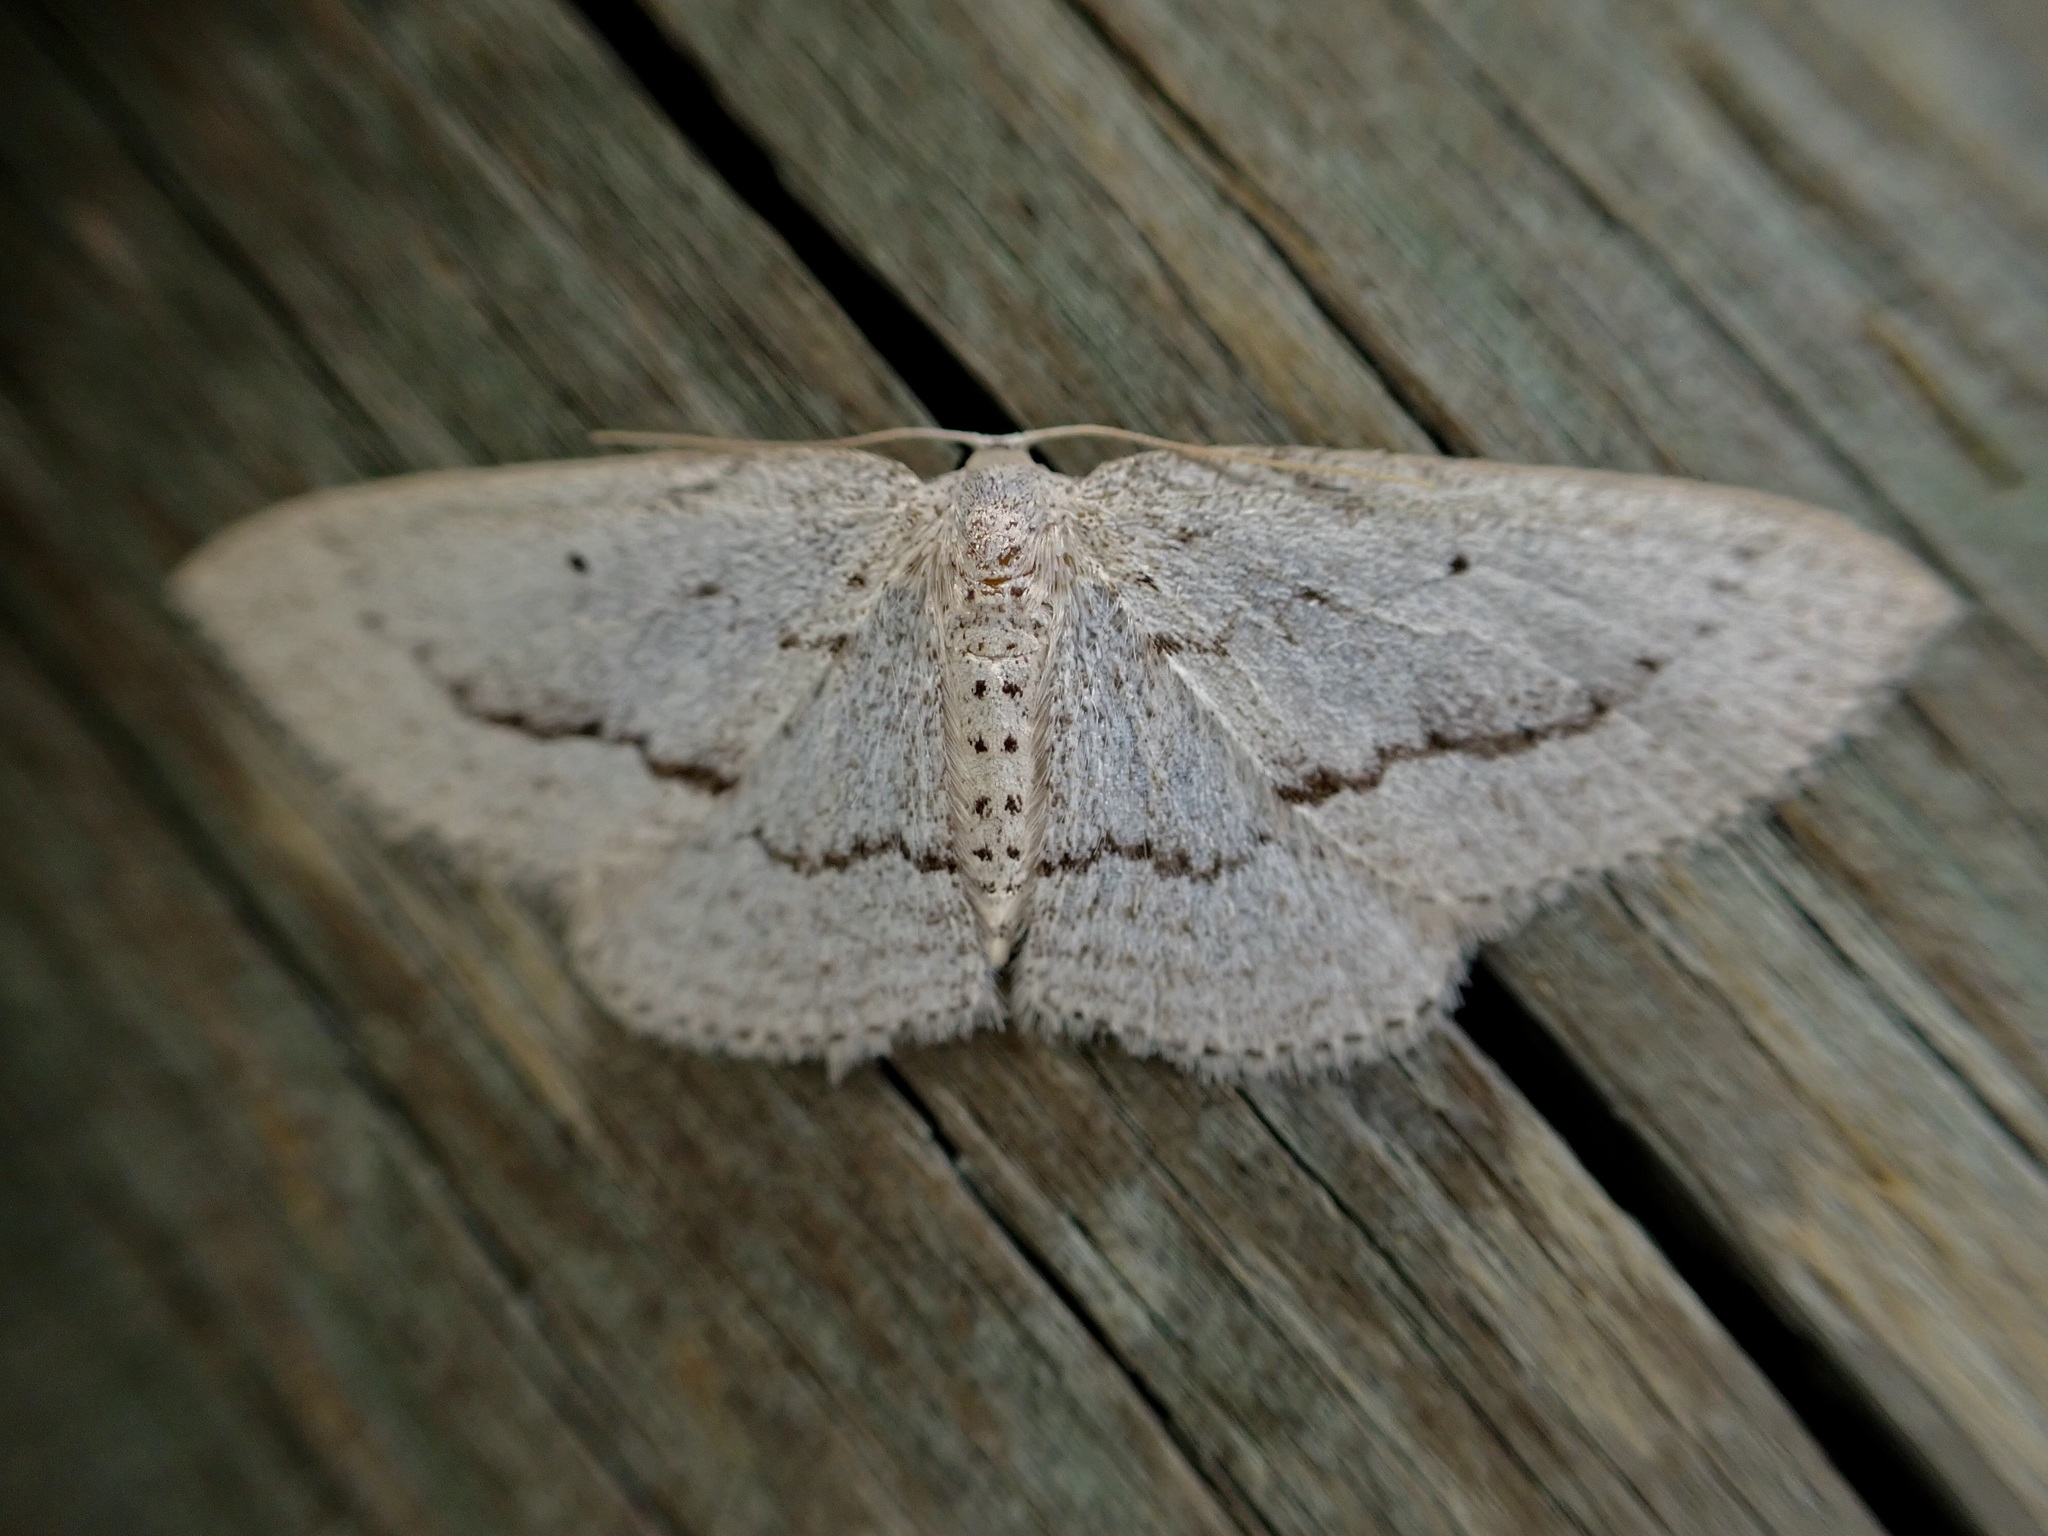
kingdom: Animalia
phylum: Arthropoda
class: Insecta
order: Lepidoptera
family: Geometridae
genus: Poecilasthena
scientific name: Poecilasthena schistaria
